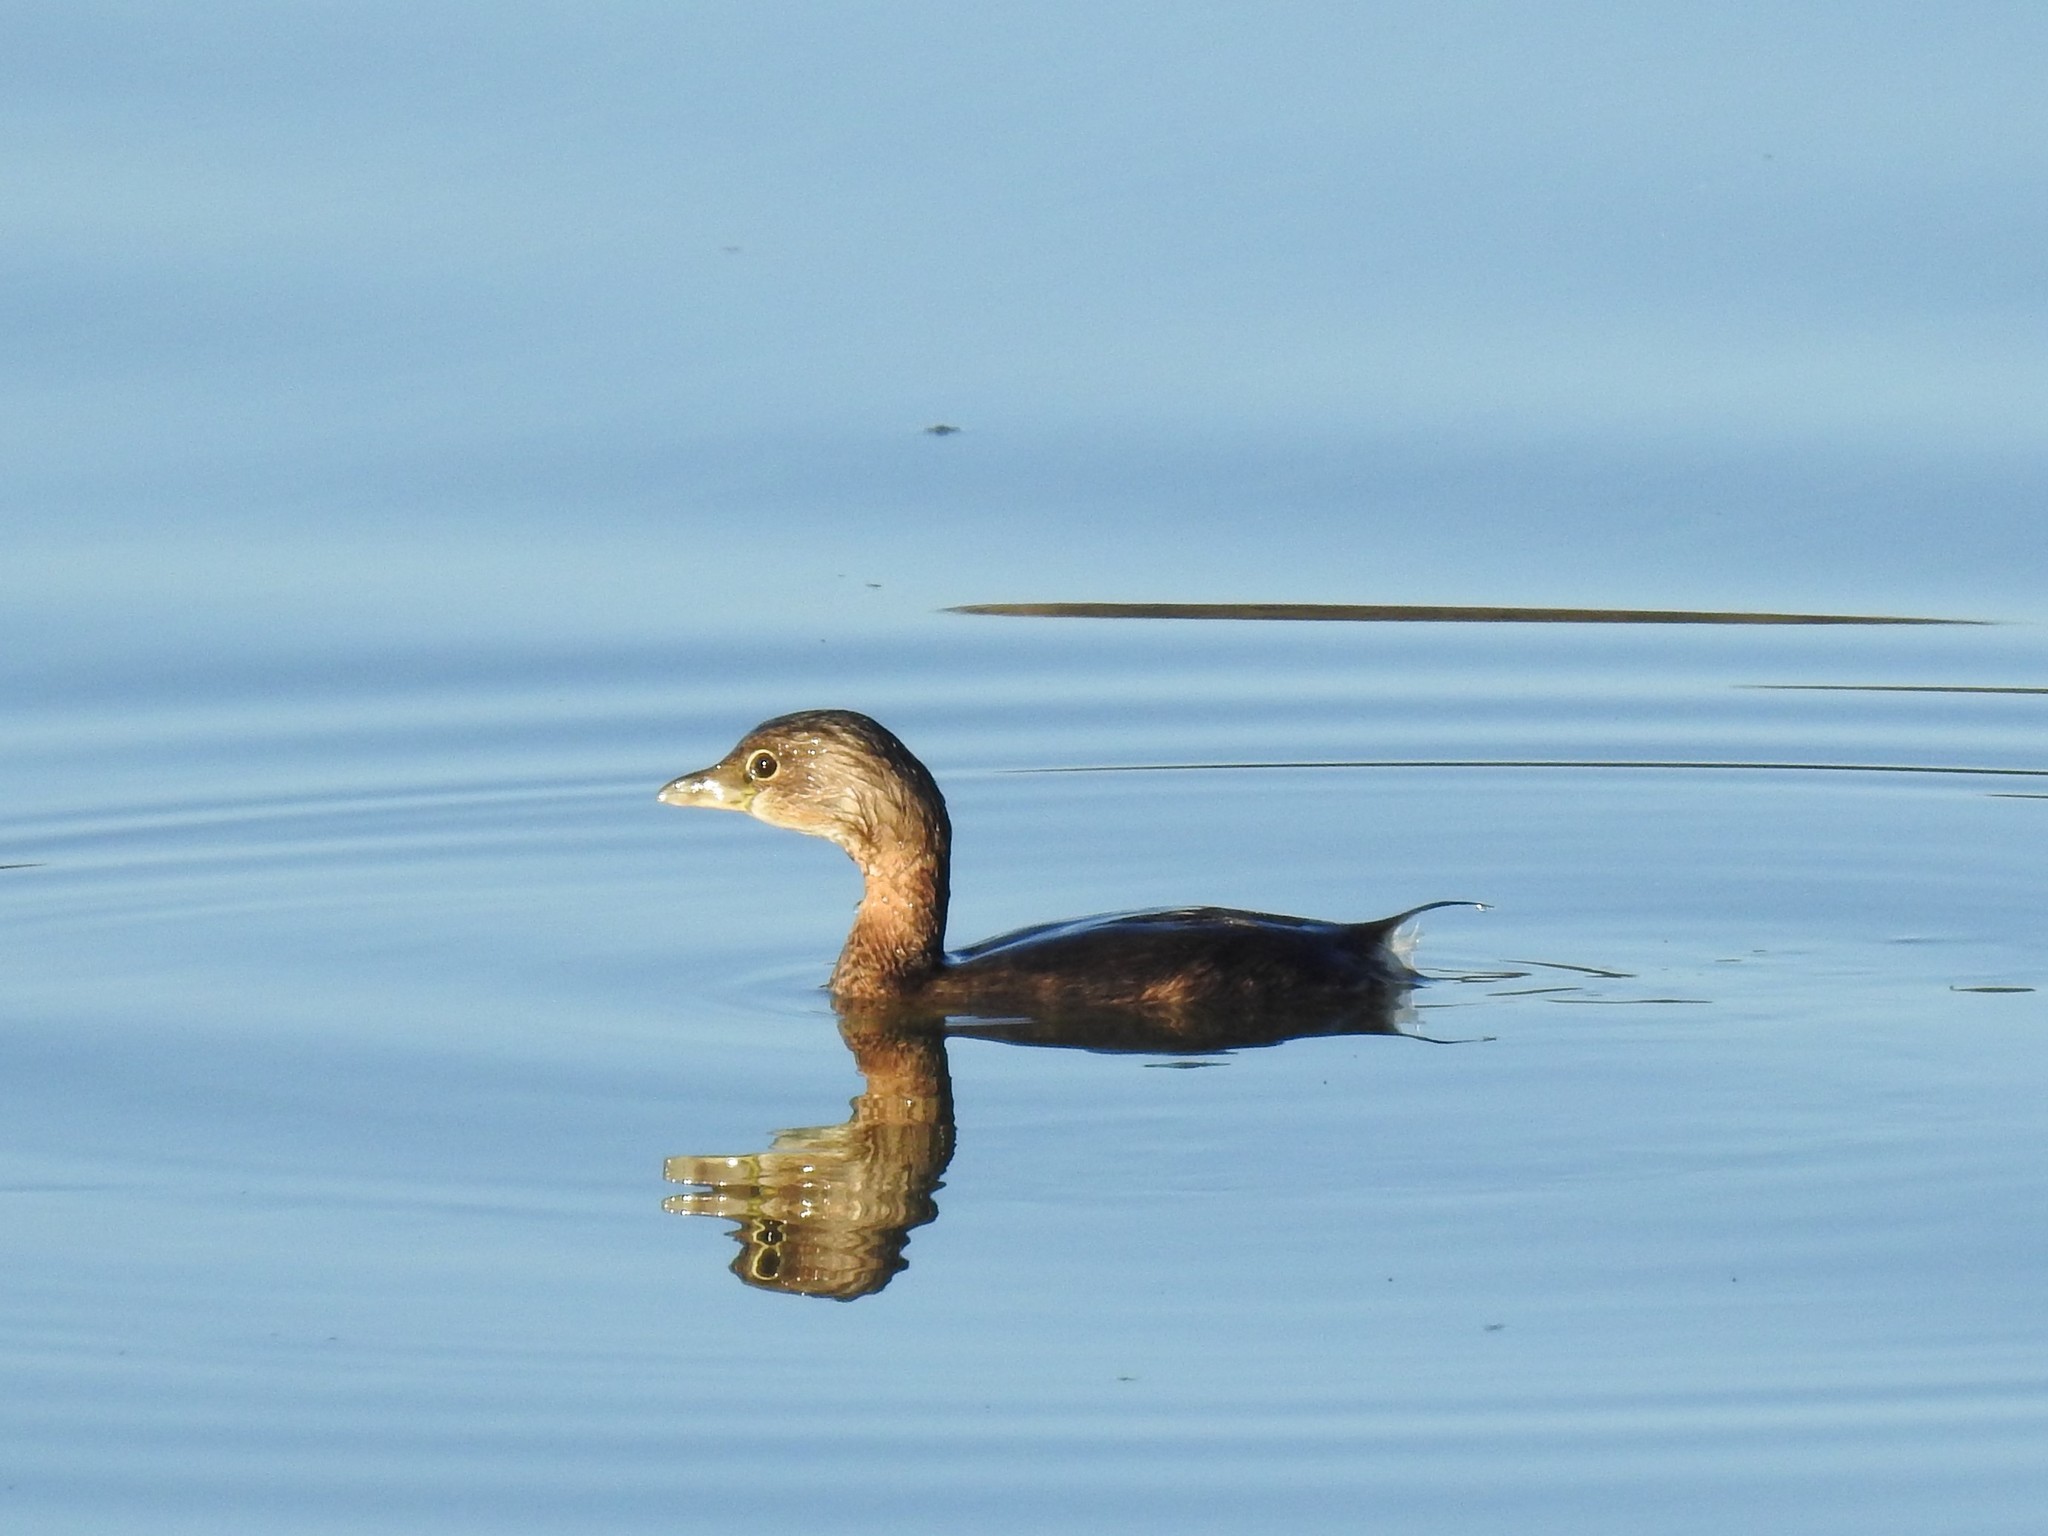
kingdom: Animalia
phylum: Chordata
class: Aves
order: Podicipediformes
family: Podicipedidae
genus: Podilymbus
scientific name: Podilymbus podiceps
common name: Pied-billed grebe
